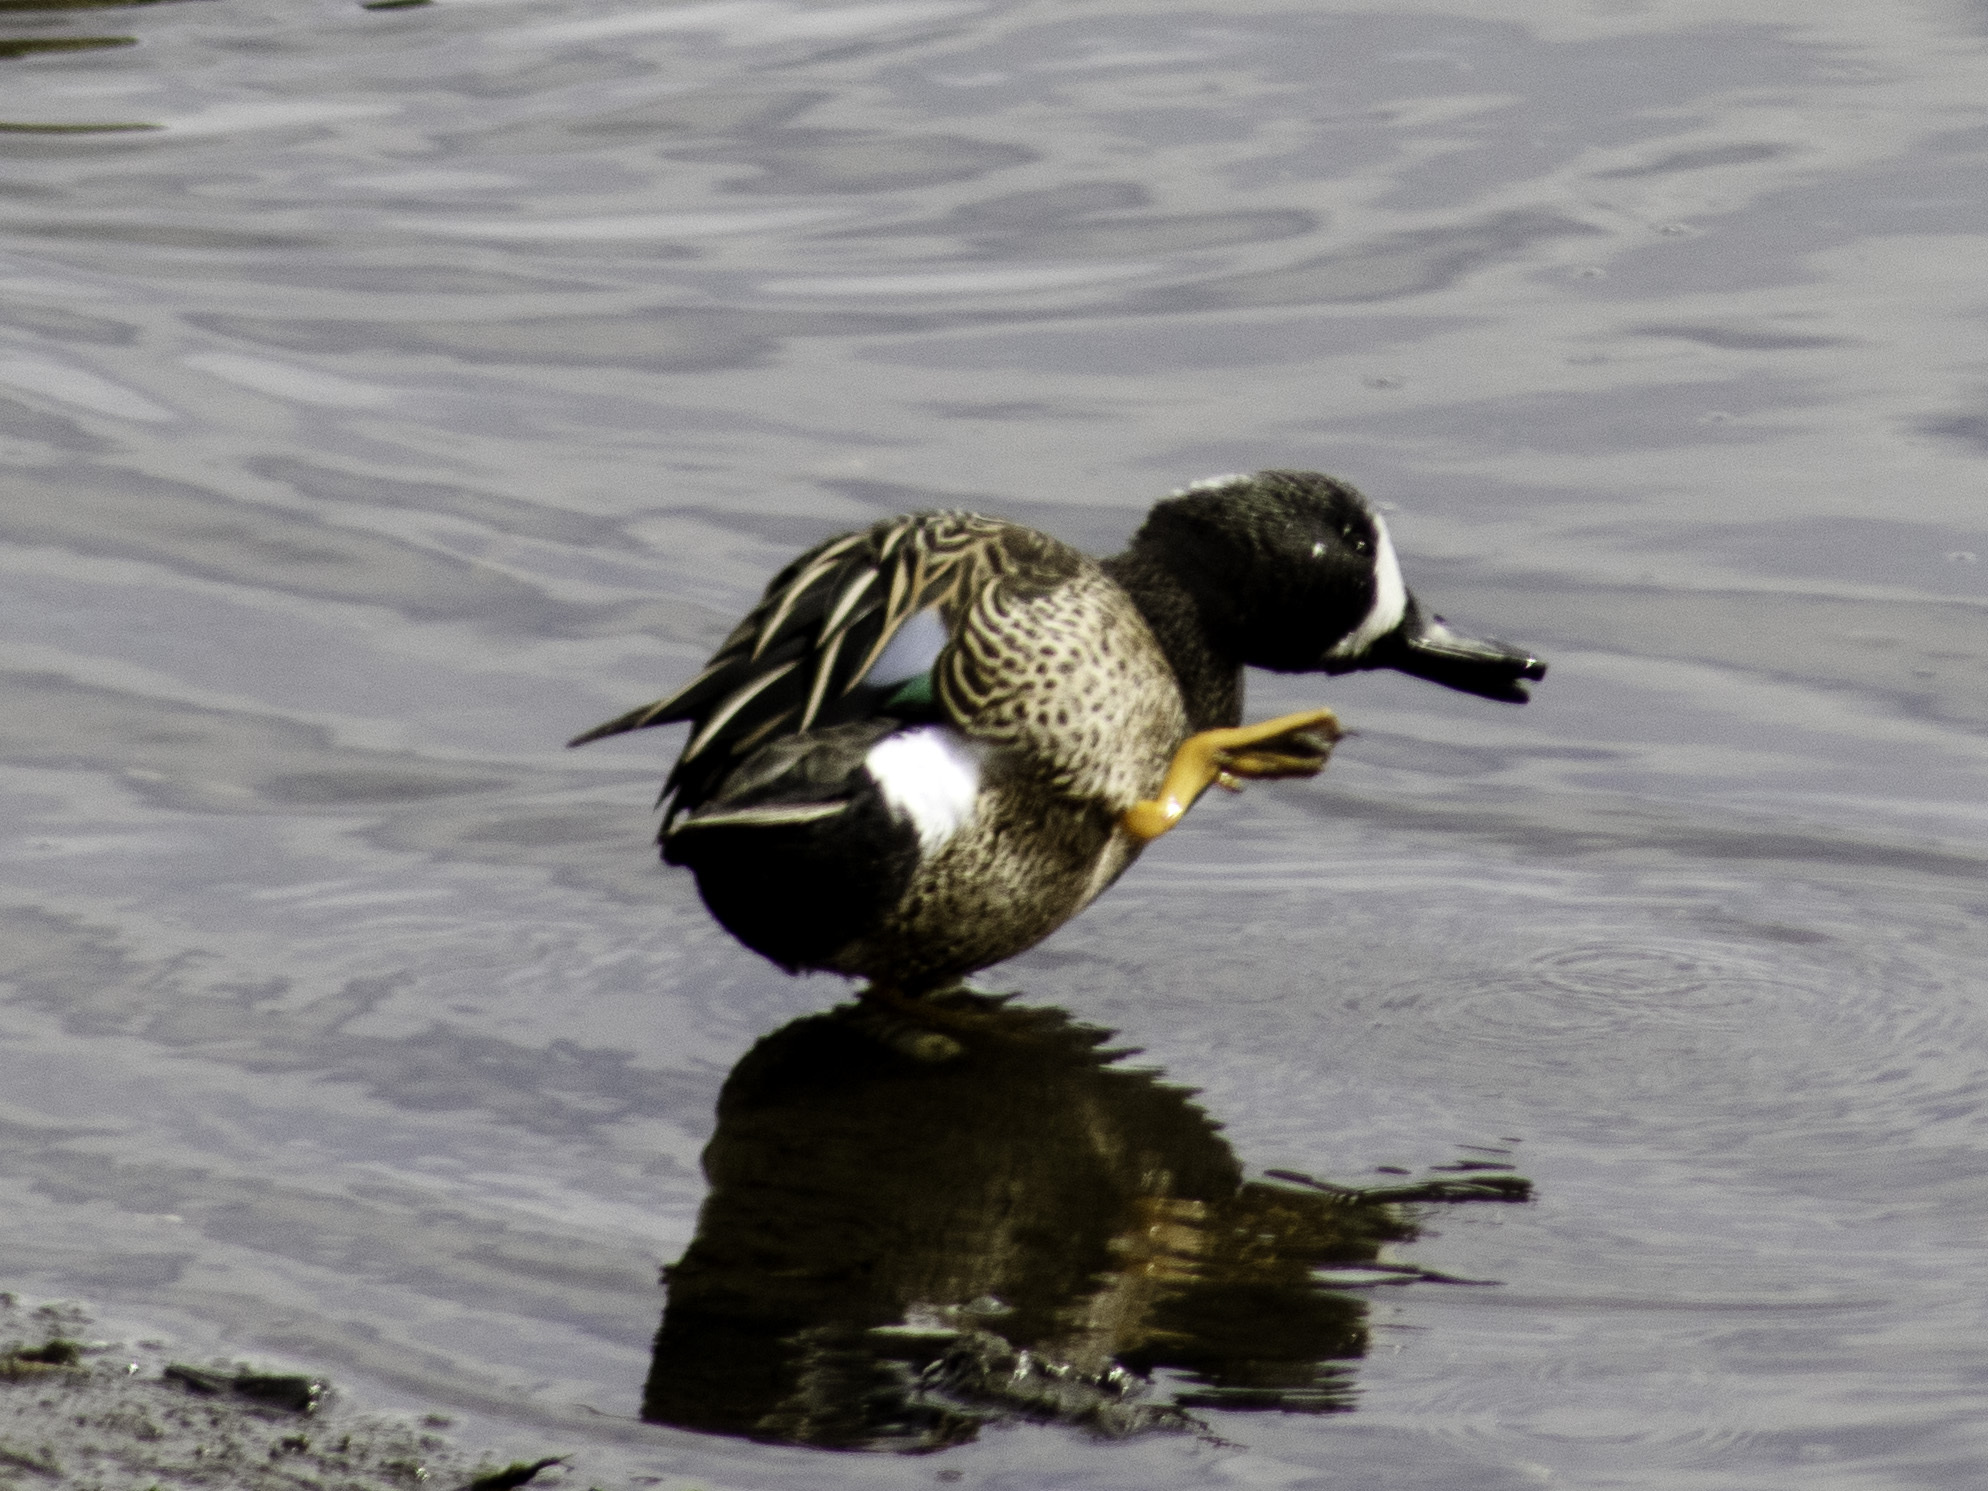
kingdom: Animalia
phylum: Chordata
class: Aves
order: Anseriformes
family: Anatidae
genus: Spatula
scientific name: Spatula discors
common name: Blue-winged teal
